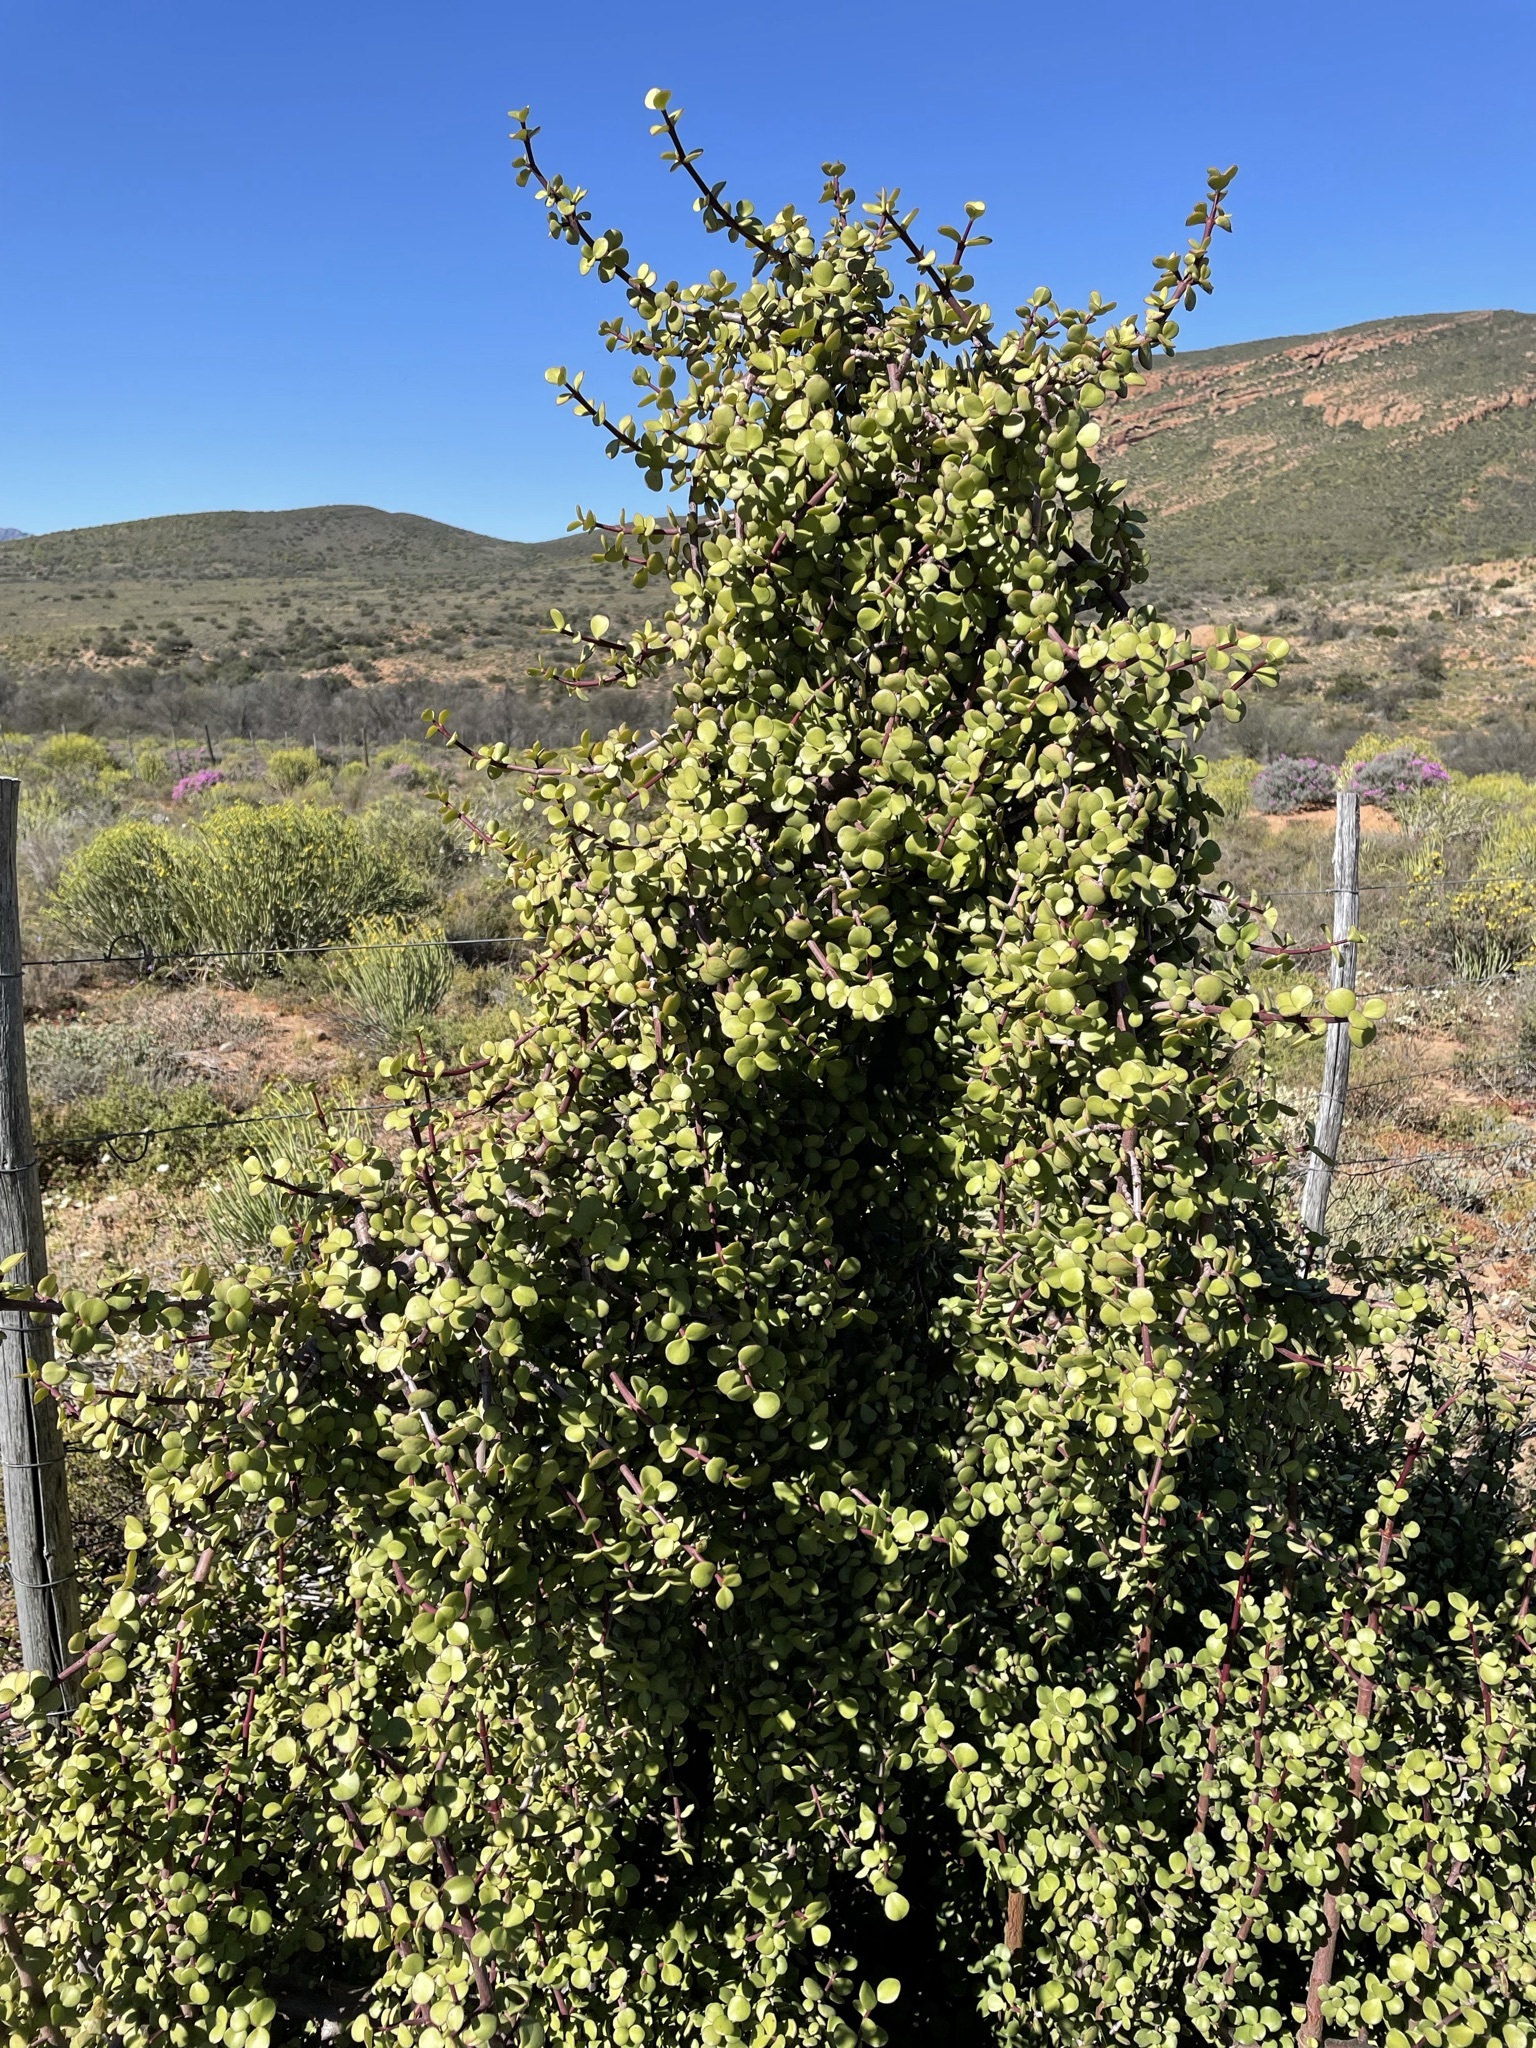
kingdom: Plantae
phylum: Tracheophyta
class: Magnoliopsida
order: Caryophyllales
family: Didiereaceae
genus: Portulacaria
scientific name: Portulacaria afra
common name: Elephant-bush
